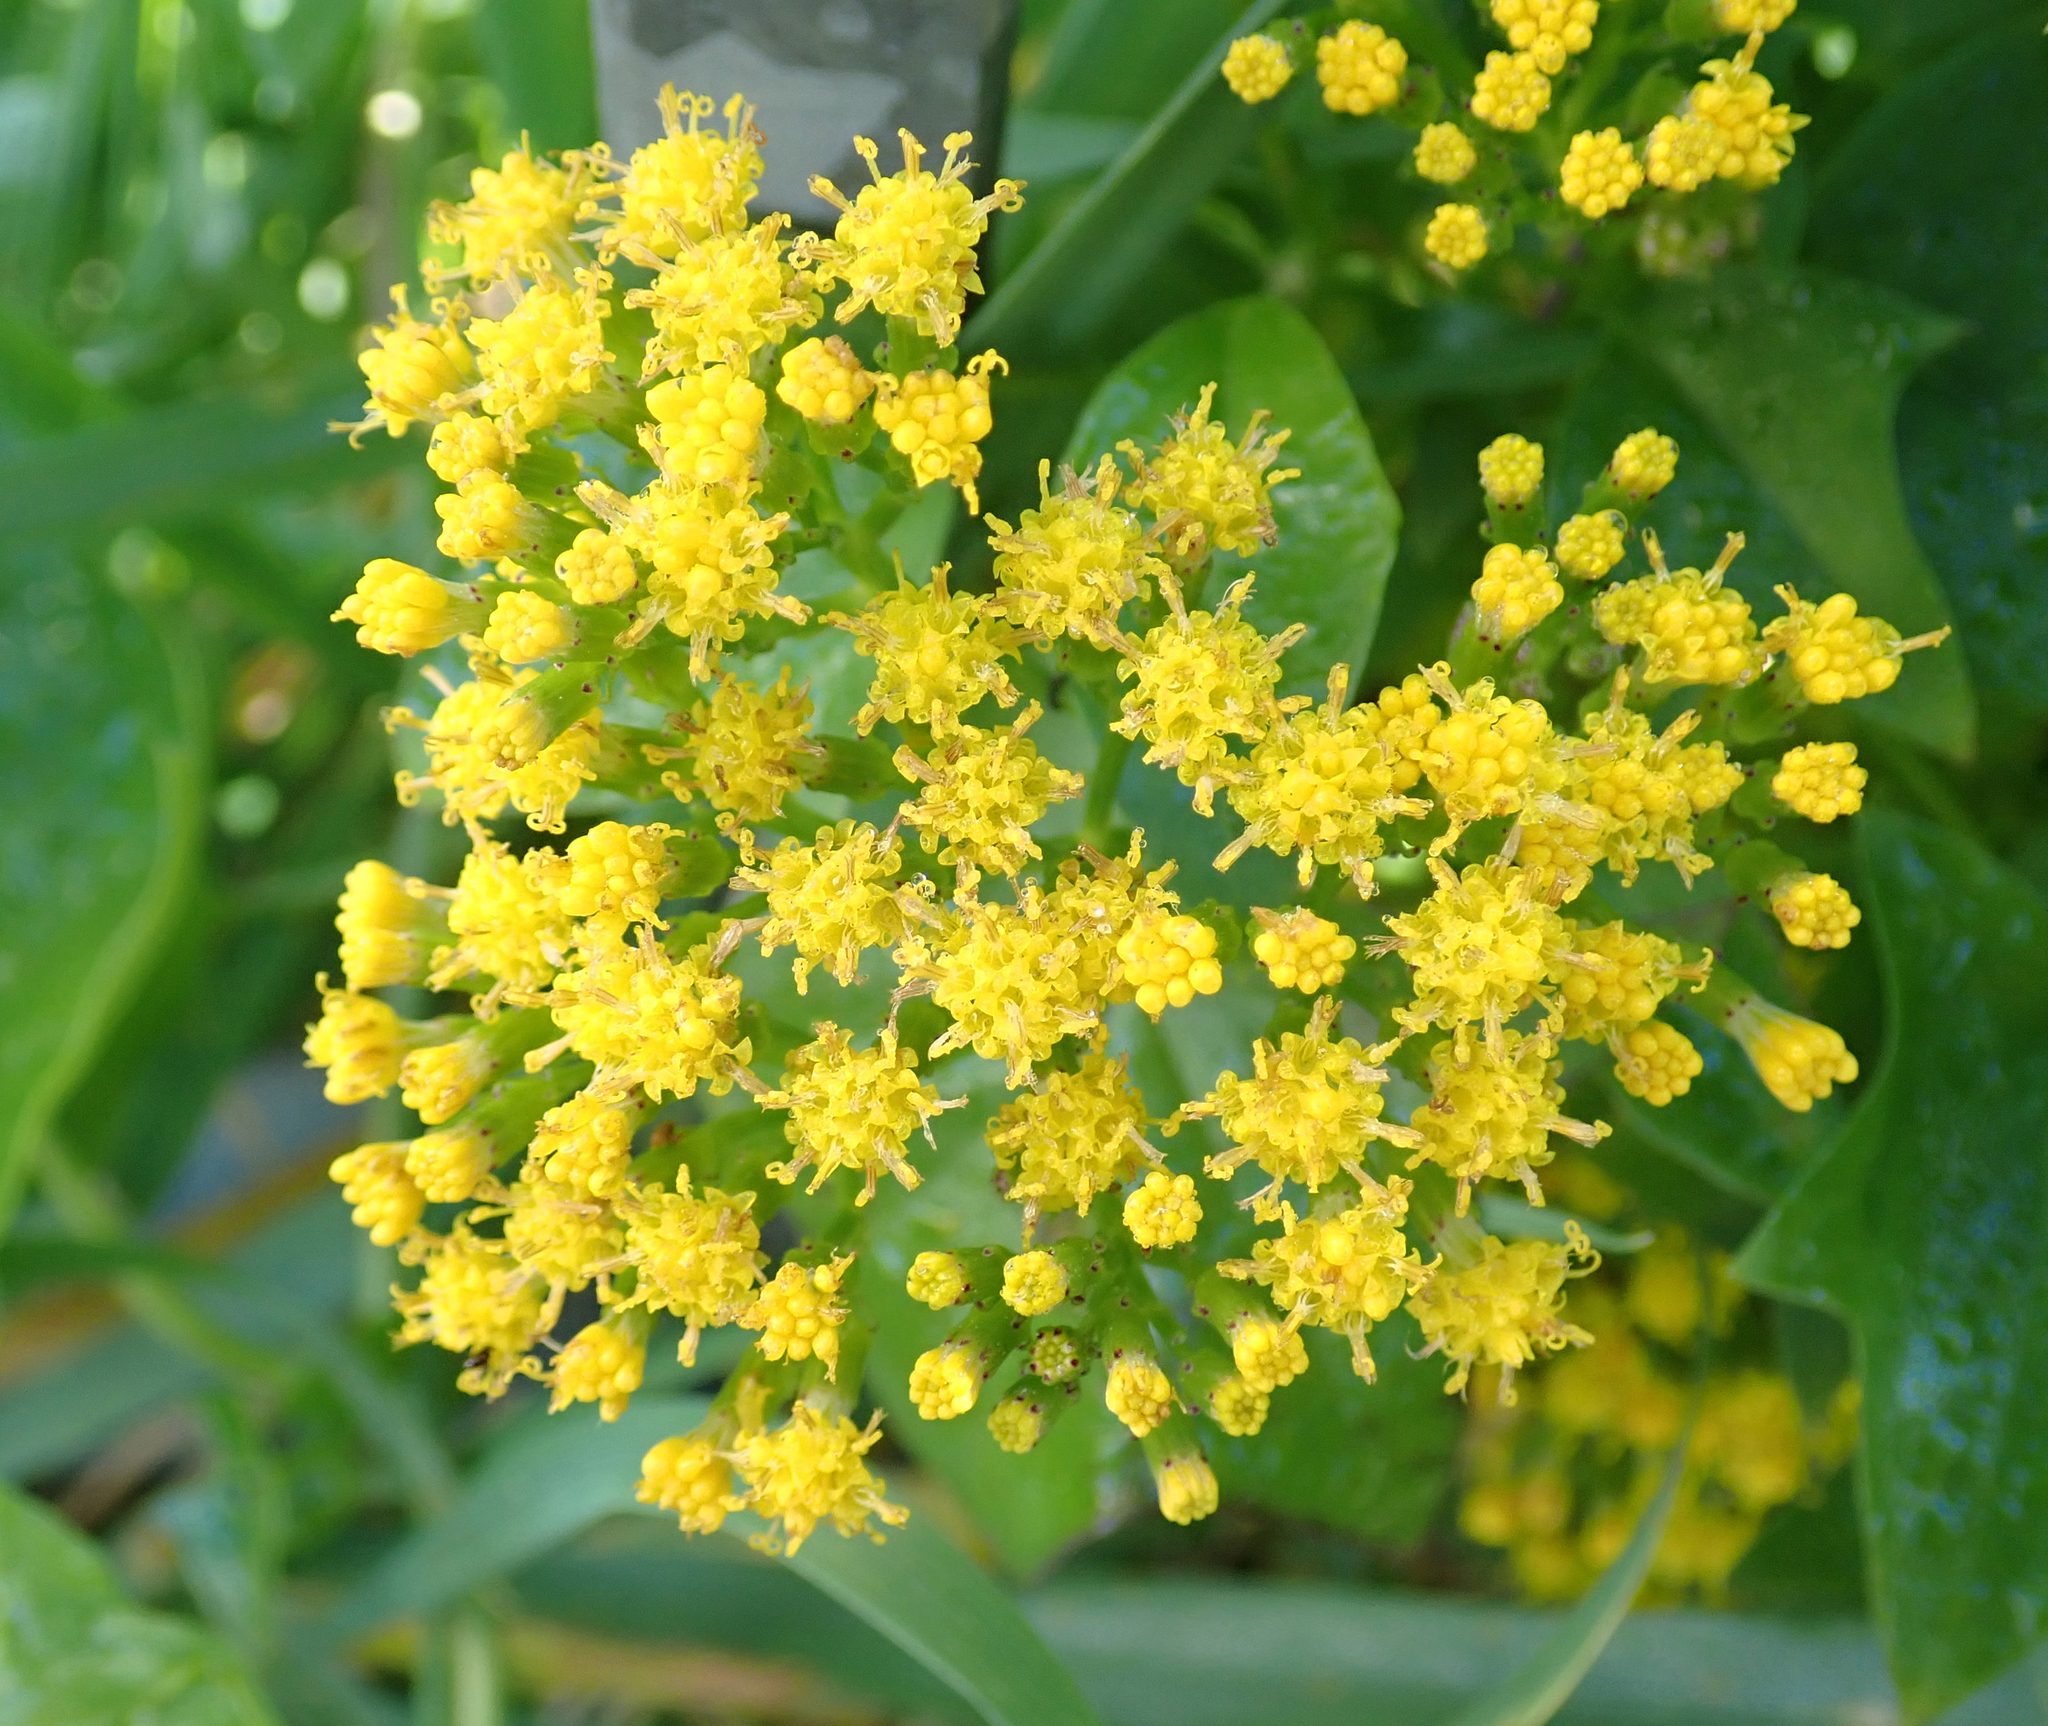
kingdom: Plantae
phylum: Tracheophyta
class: Magnoliopsida
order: Asterales
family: Asteraceae
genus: Delairea
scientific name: Delairea odorata
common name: Cape-ivy
